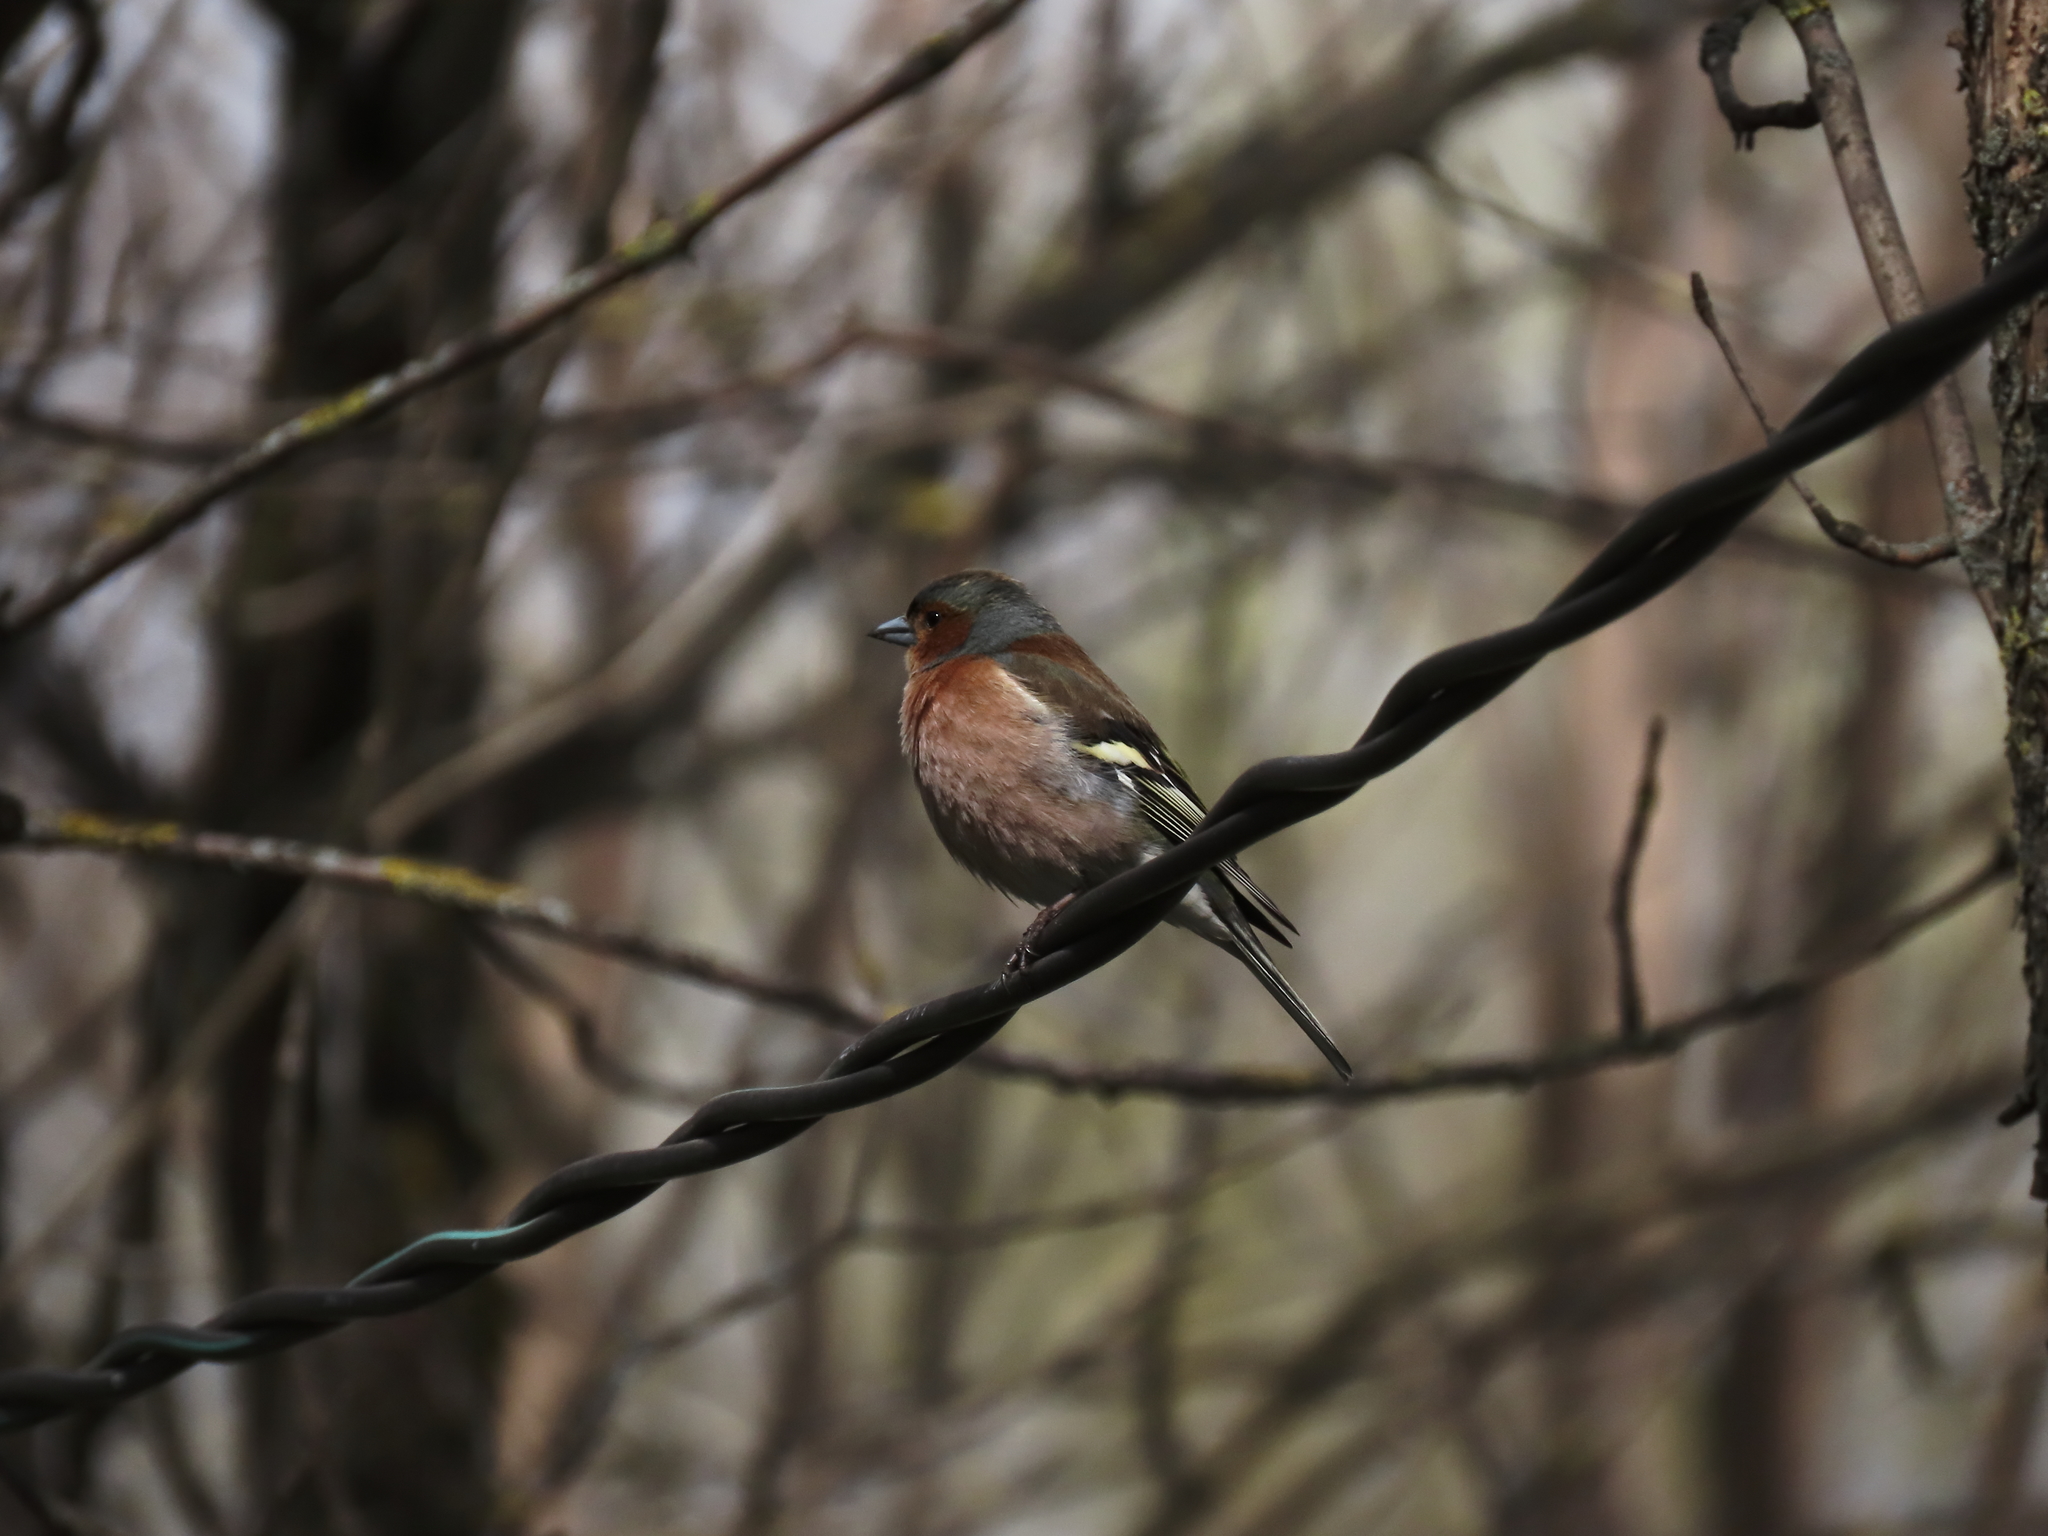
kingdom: Animalia
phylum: Chordata
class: Aves
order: Passeriformes
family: Fringillidae
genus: Fringilla
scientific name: Fringilla coelebs
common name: Common chaffinch
